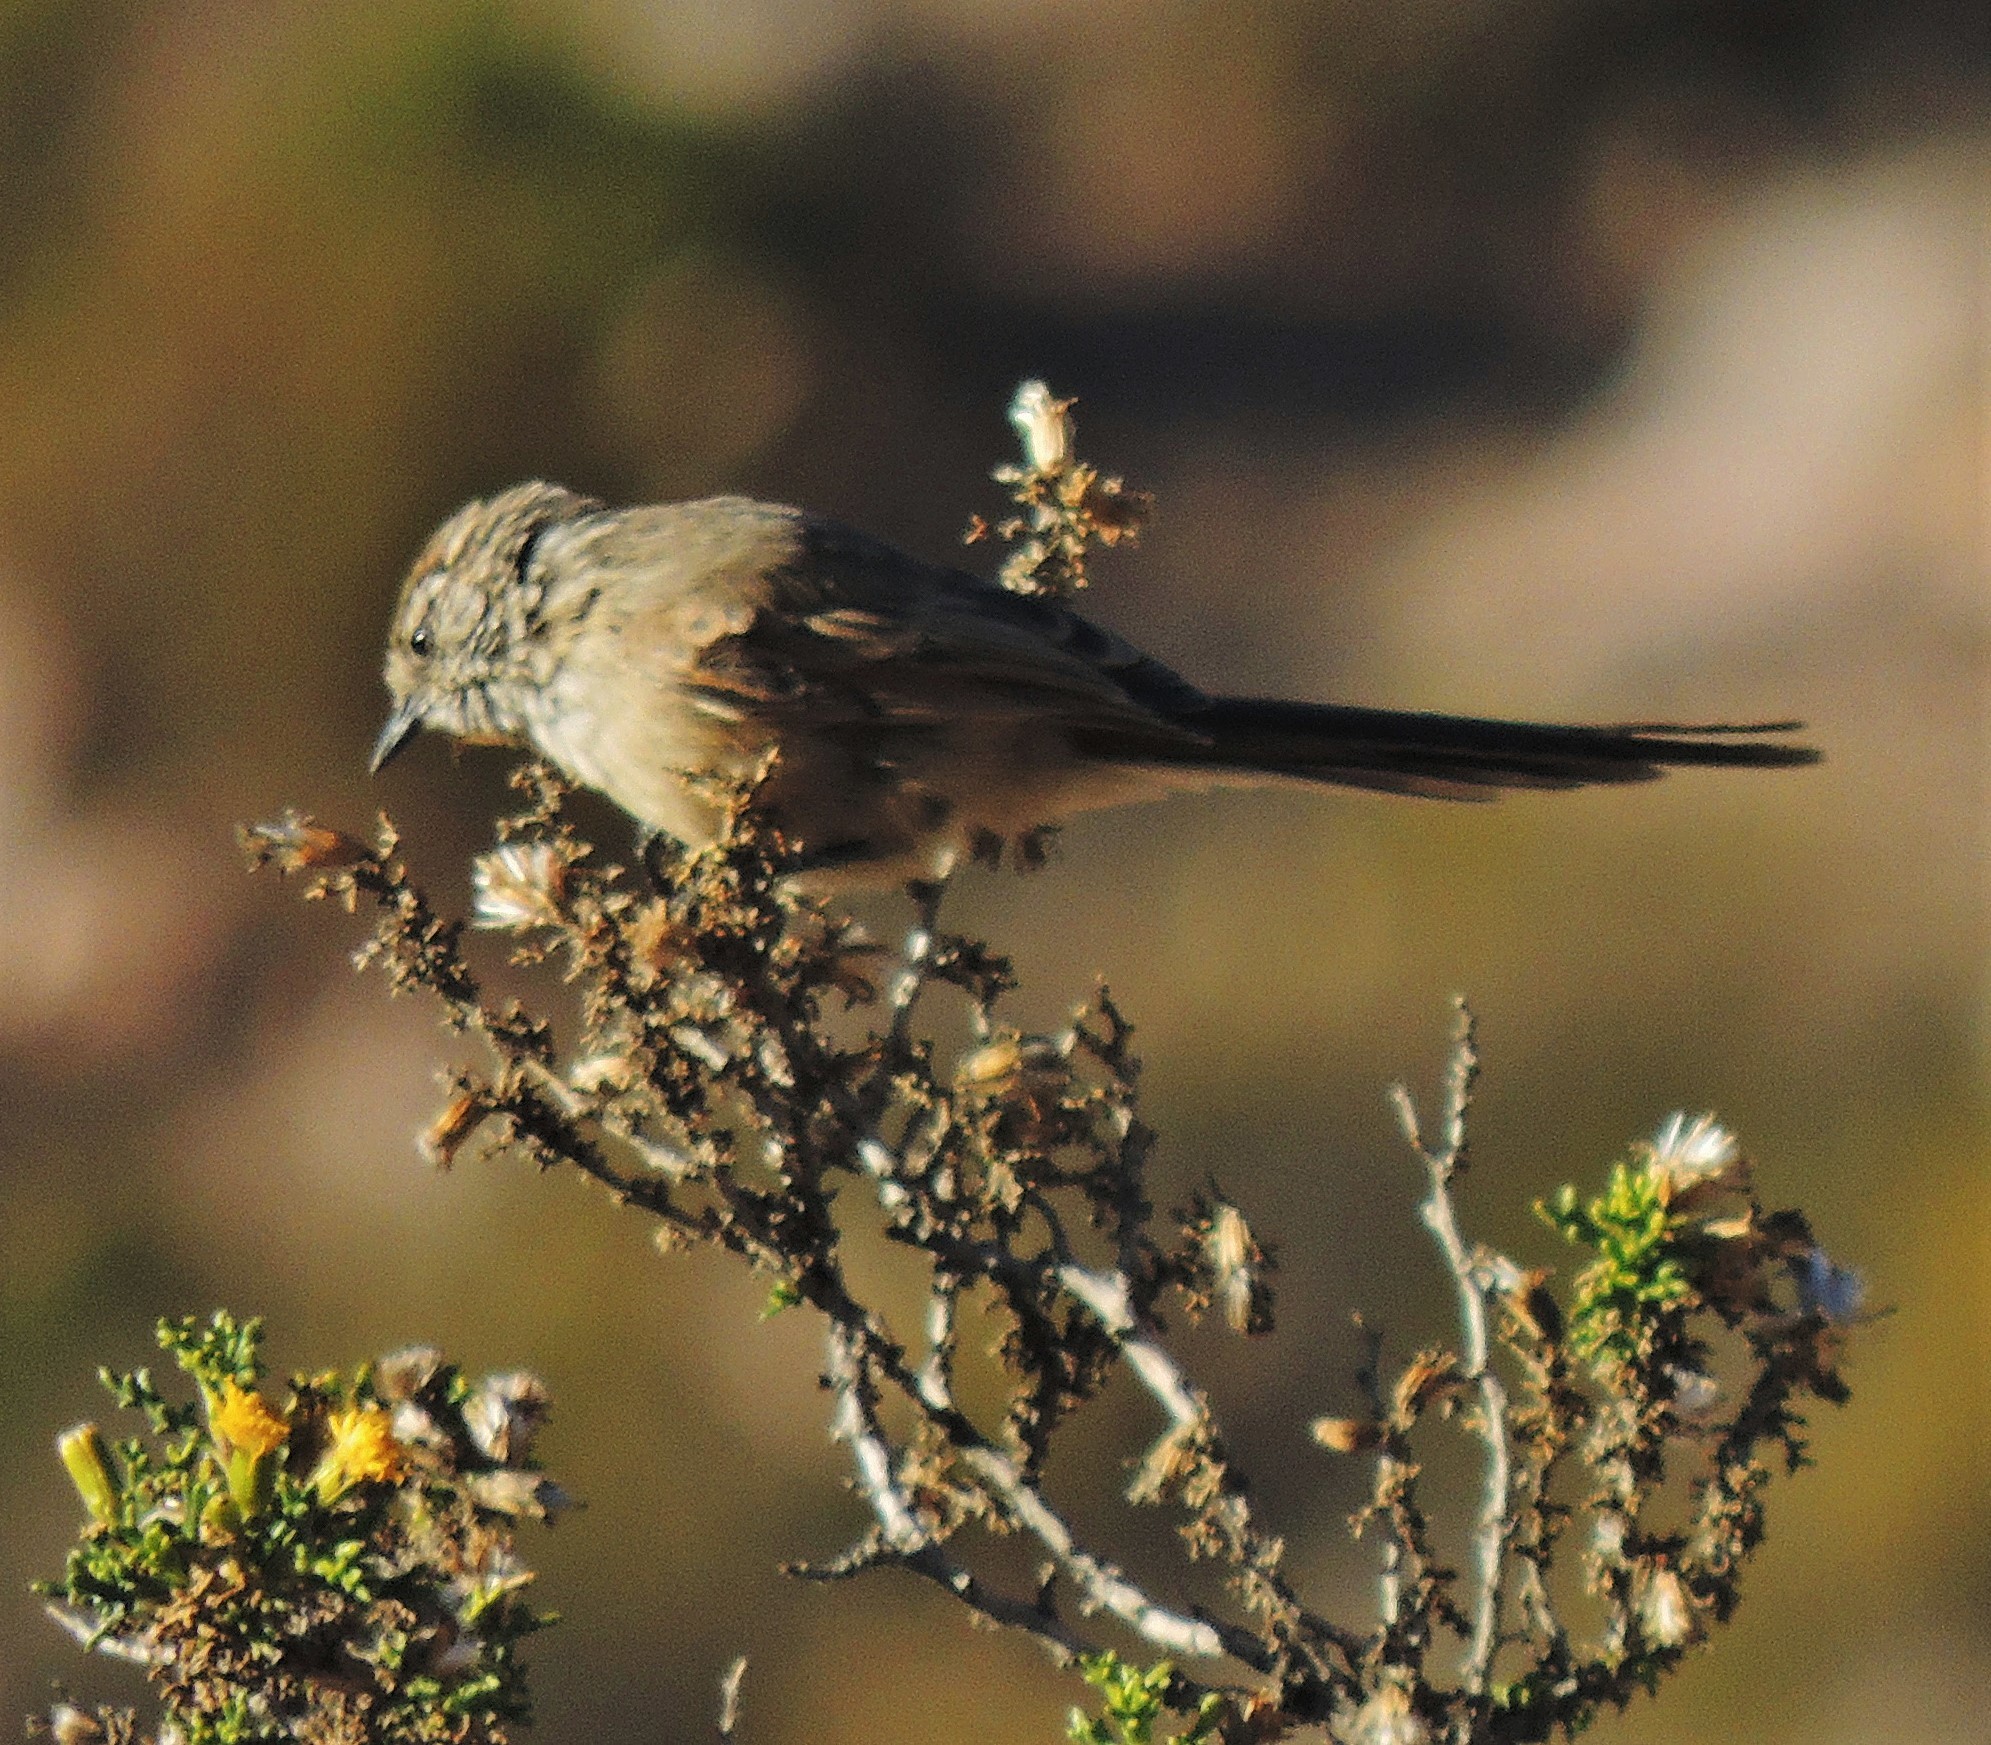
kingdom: Animalia
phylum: Chordata
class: Aves
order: Passeriformes
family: Furnariidae
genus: Leptasthenura
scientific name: Leptasthenura aegithaloides
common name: Plain-mantled tit-spinetail
